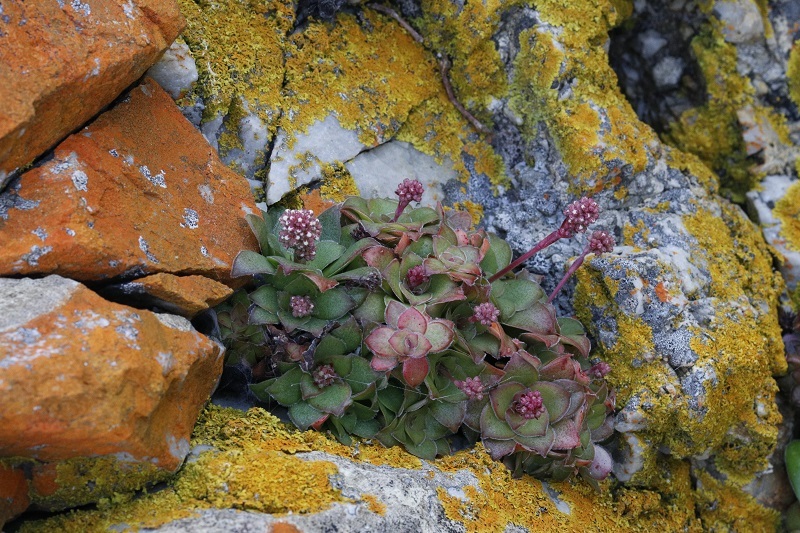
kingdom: Plantae
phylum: Tracheophyta
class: Magnoliopsida
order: Saxifragales
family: Crassulaceae
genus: Crassula
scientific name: Crassula orbicularis
